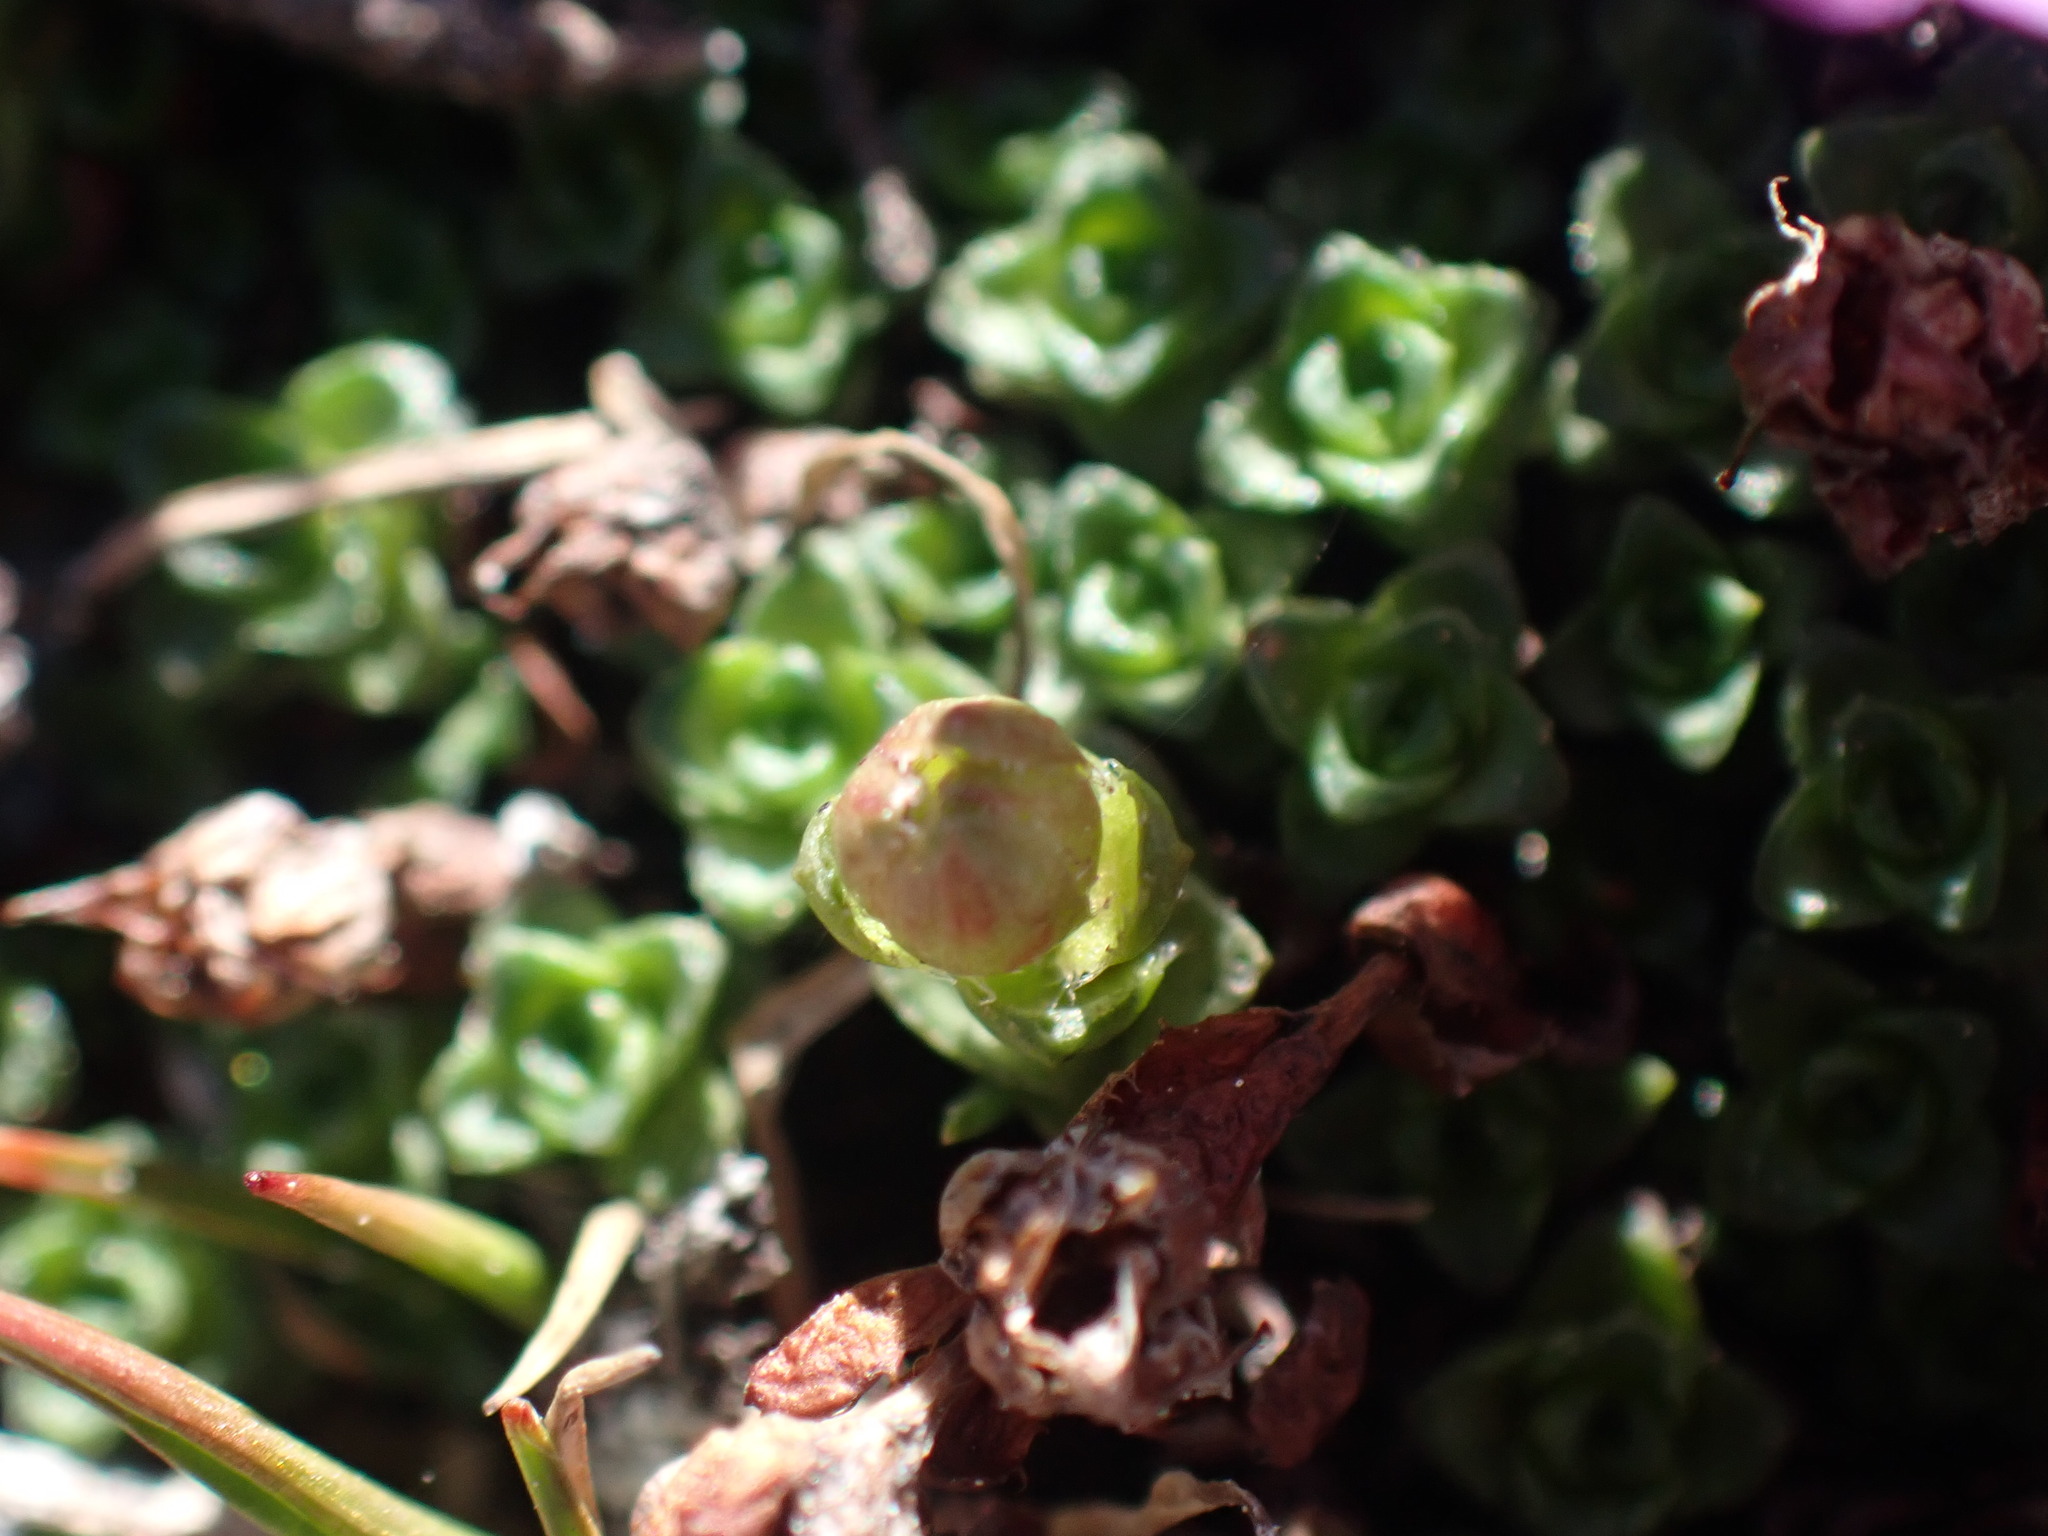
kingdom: Plantae
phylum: Tracheophyta
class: Magnoliopsida
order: Saxifragales
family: Saxifragaceae
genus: Saxifraga
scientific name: Saxifraga oppositifolia
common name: Purple saxifrage
